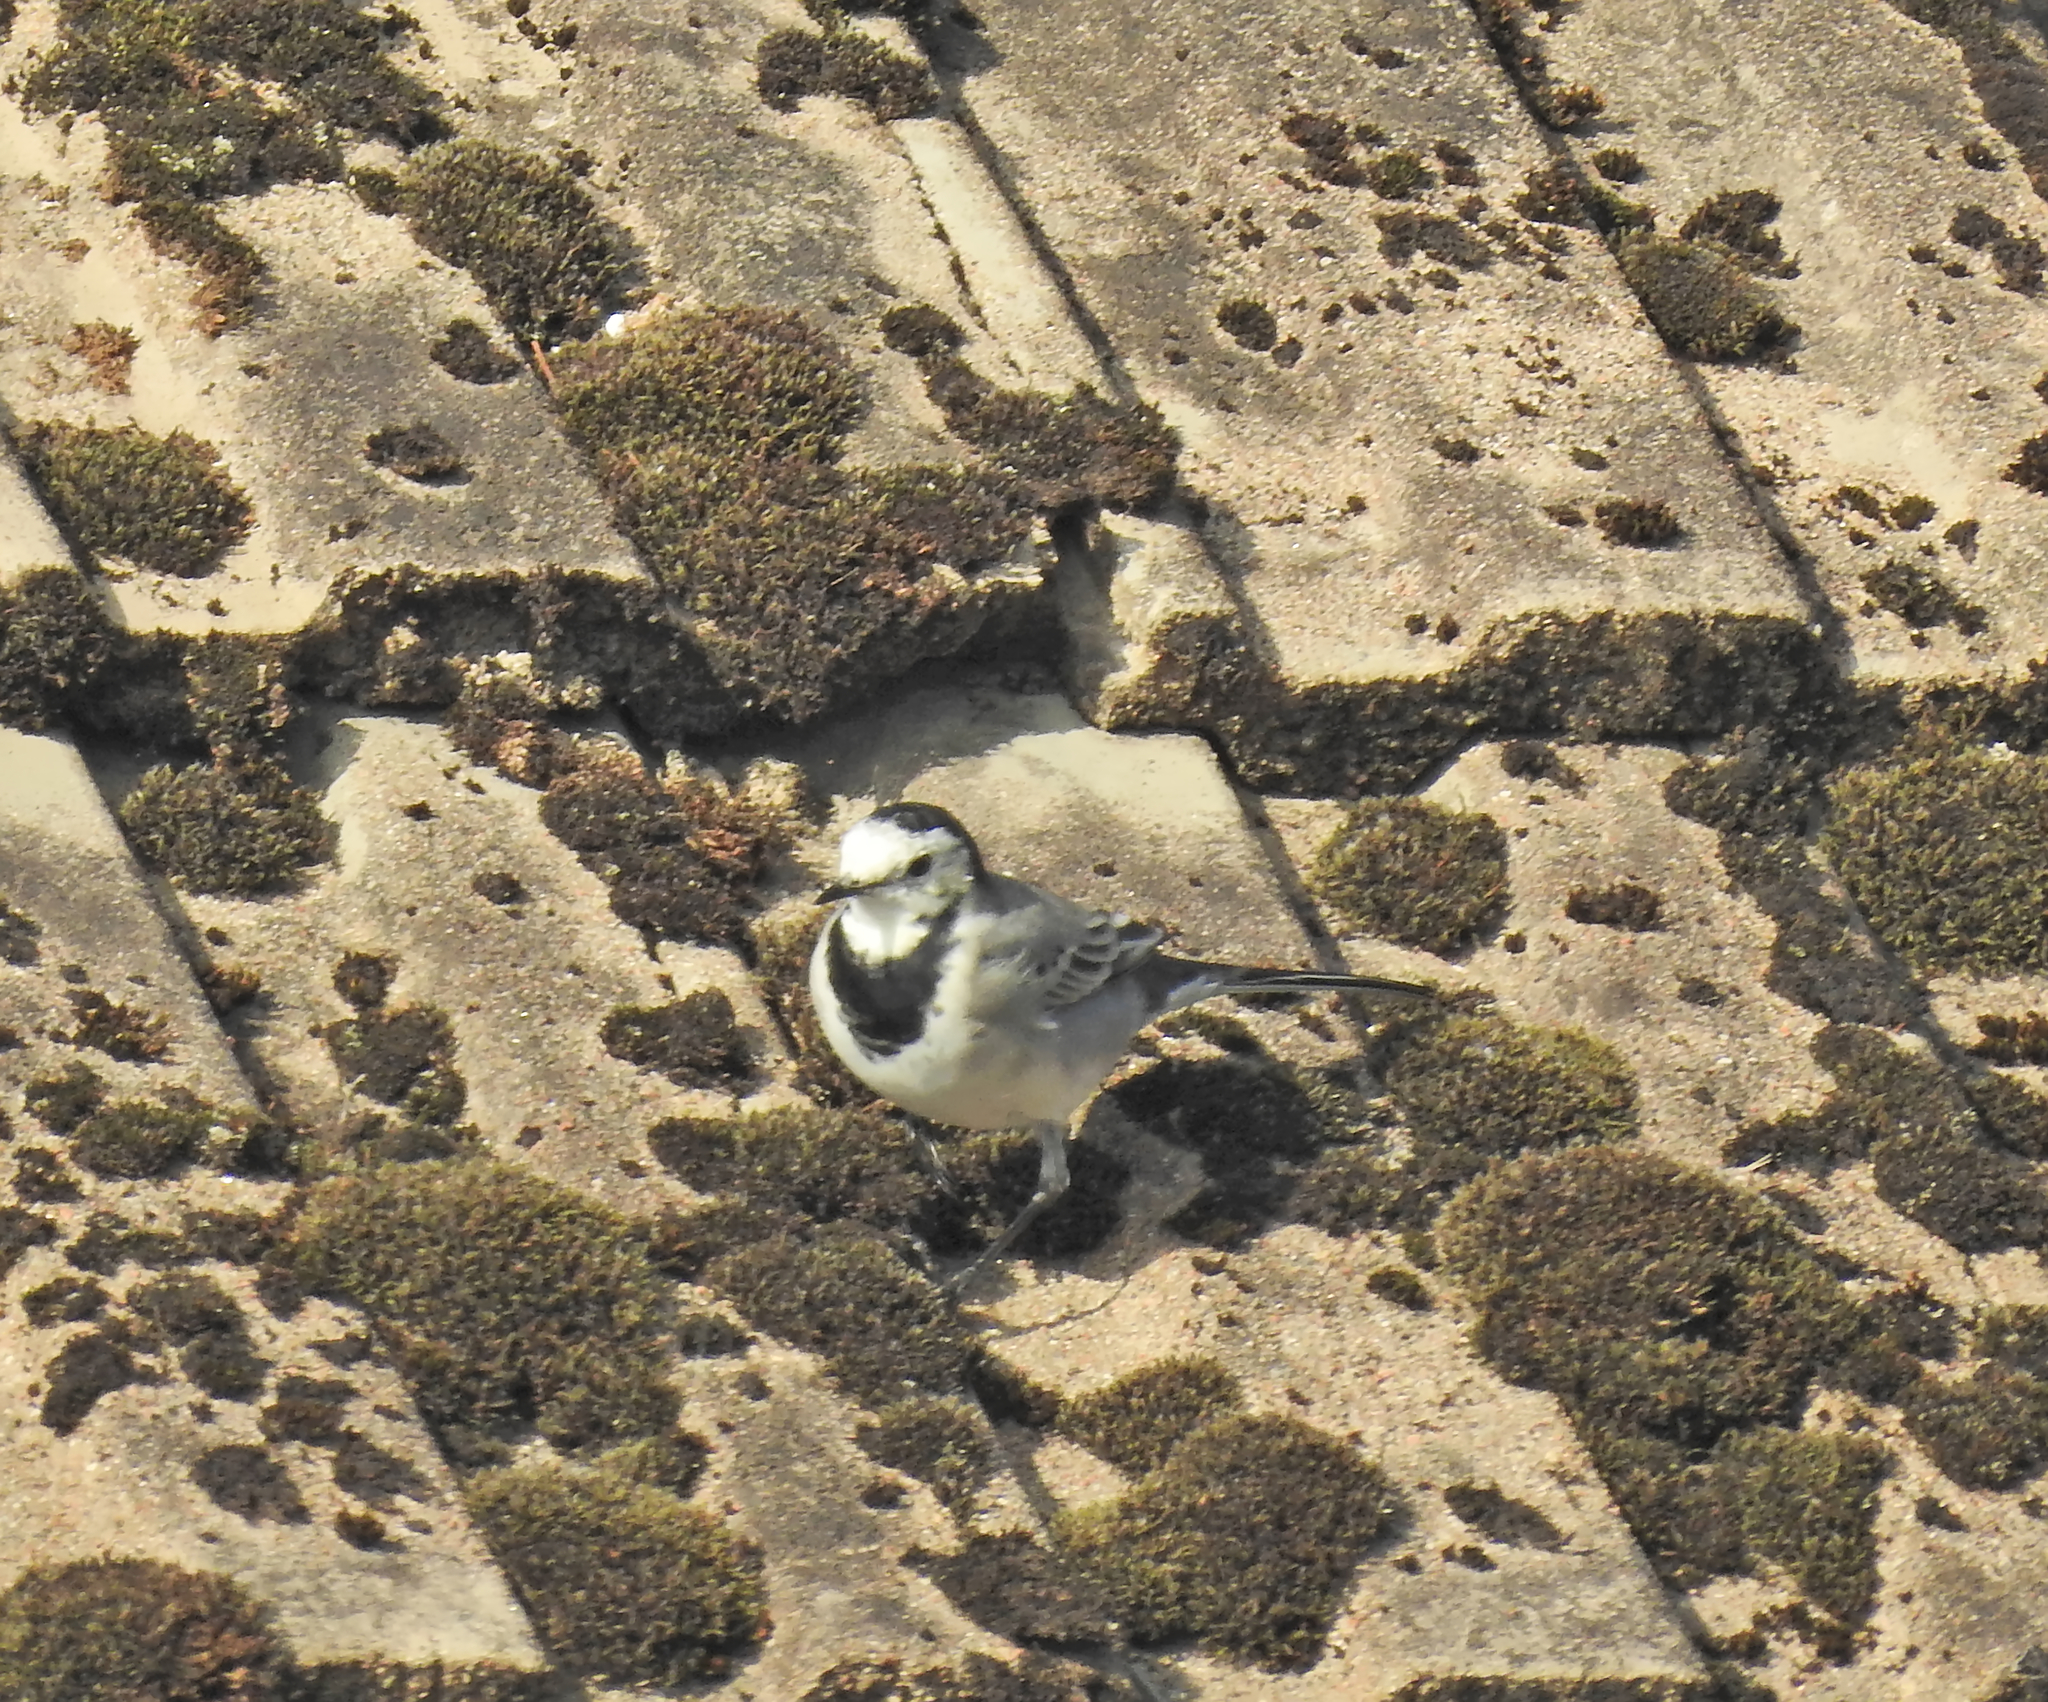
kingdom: Animalia
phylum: Chordata
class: Aves
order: Passeriformes
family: Motacillidae
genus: Motacilla
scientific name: Motacilla alba
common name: White wagtail
